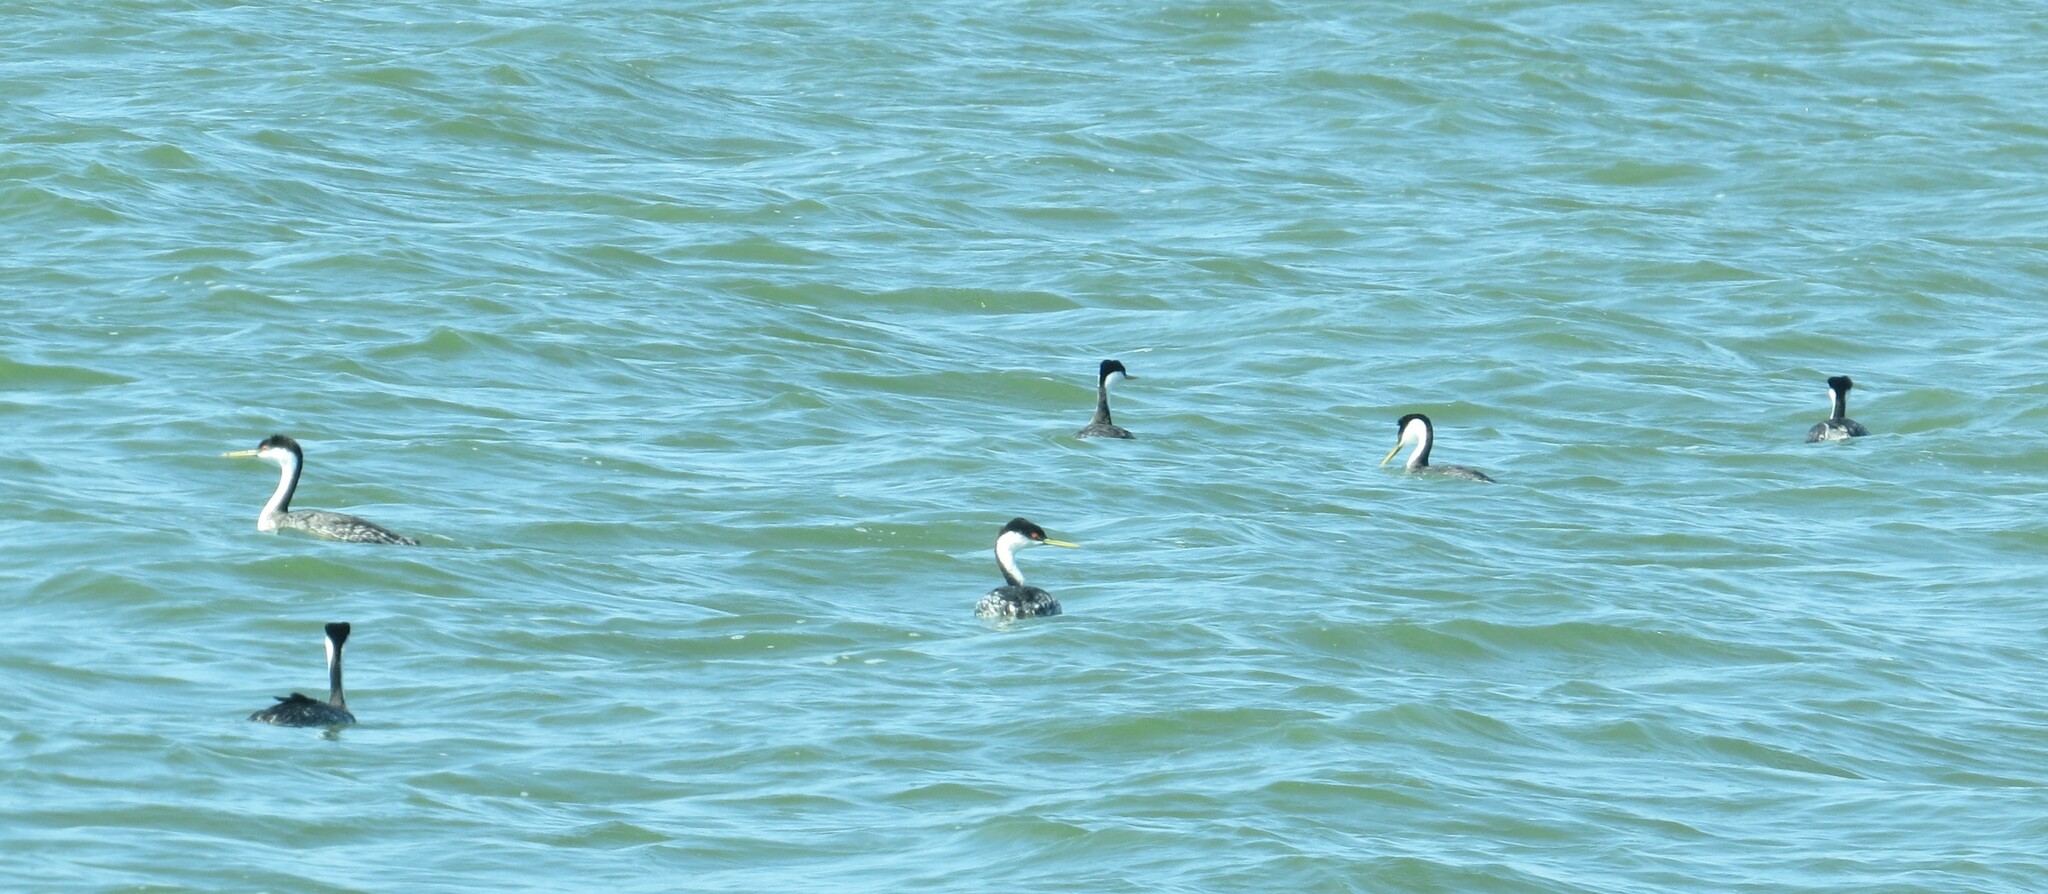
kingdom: Animalia
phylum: Chordata
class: Aves
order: Podicipediformes
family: Podicipedidae
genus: Aechmophorus
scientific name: Aechmophorus occidentalis
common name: Western grebe
